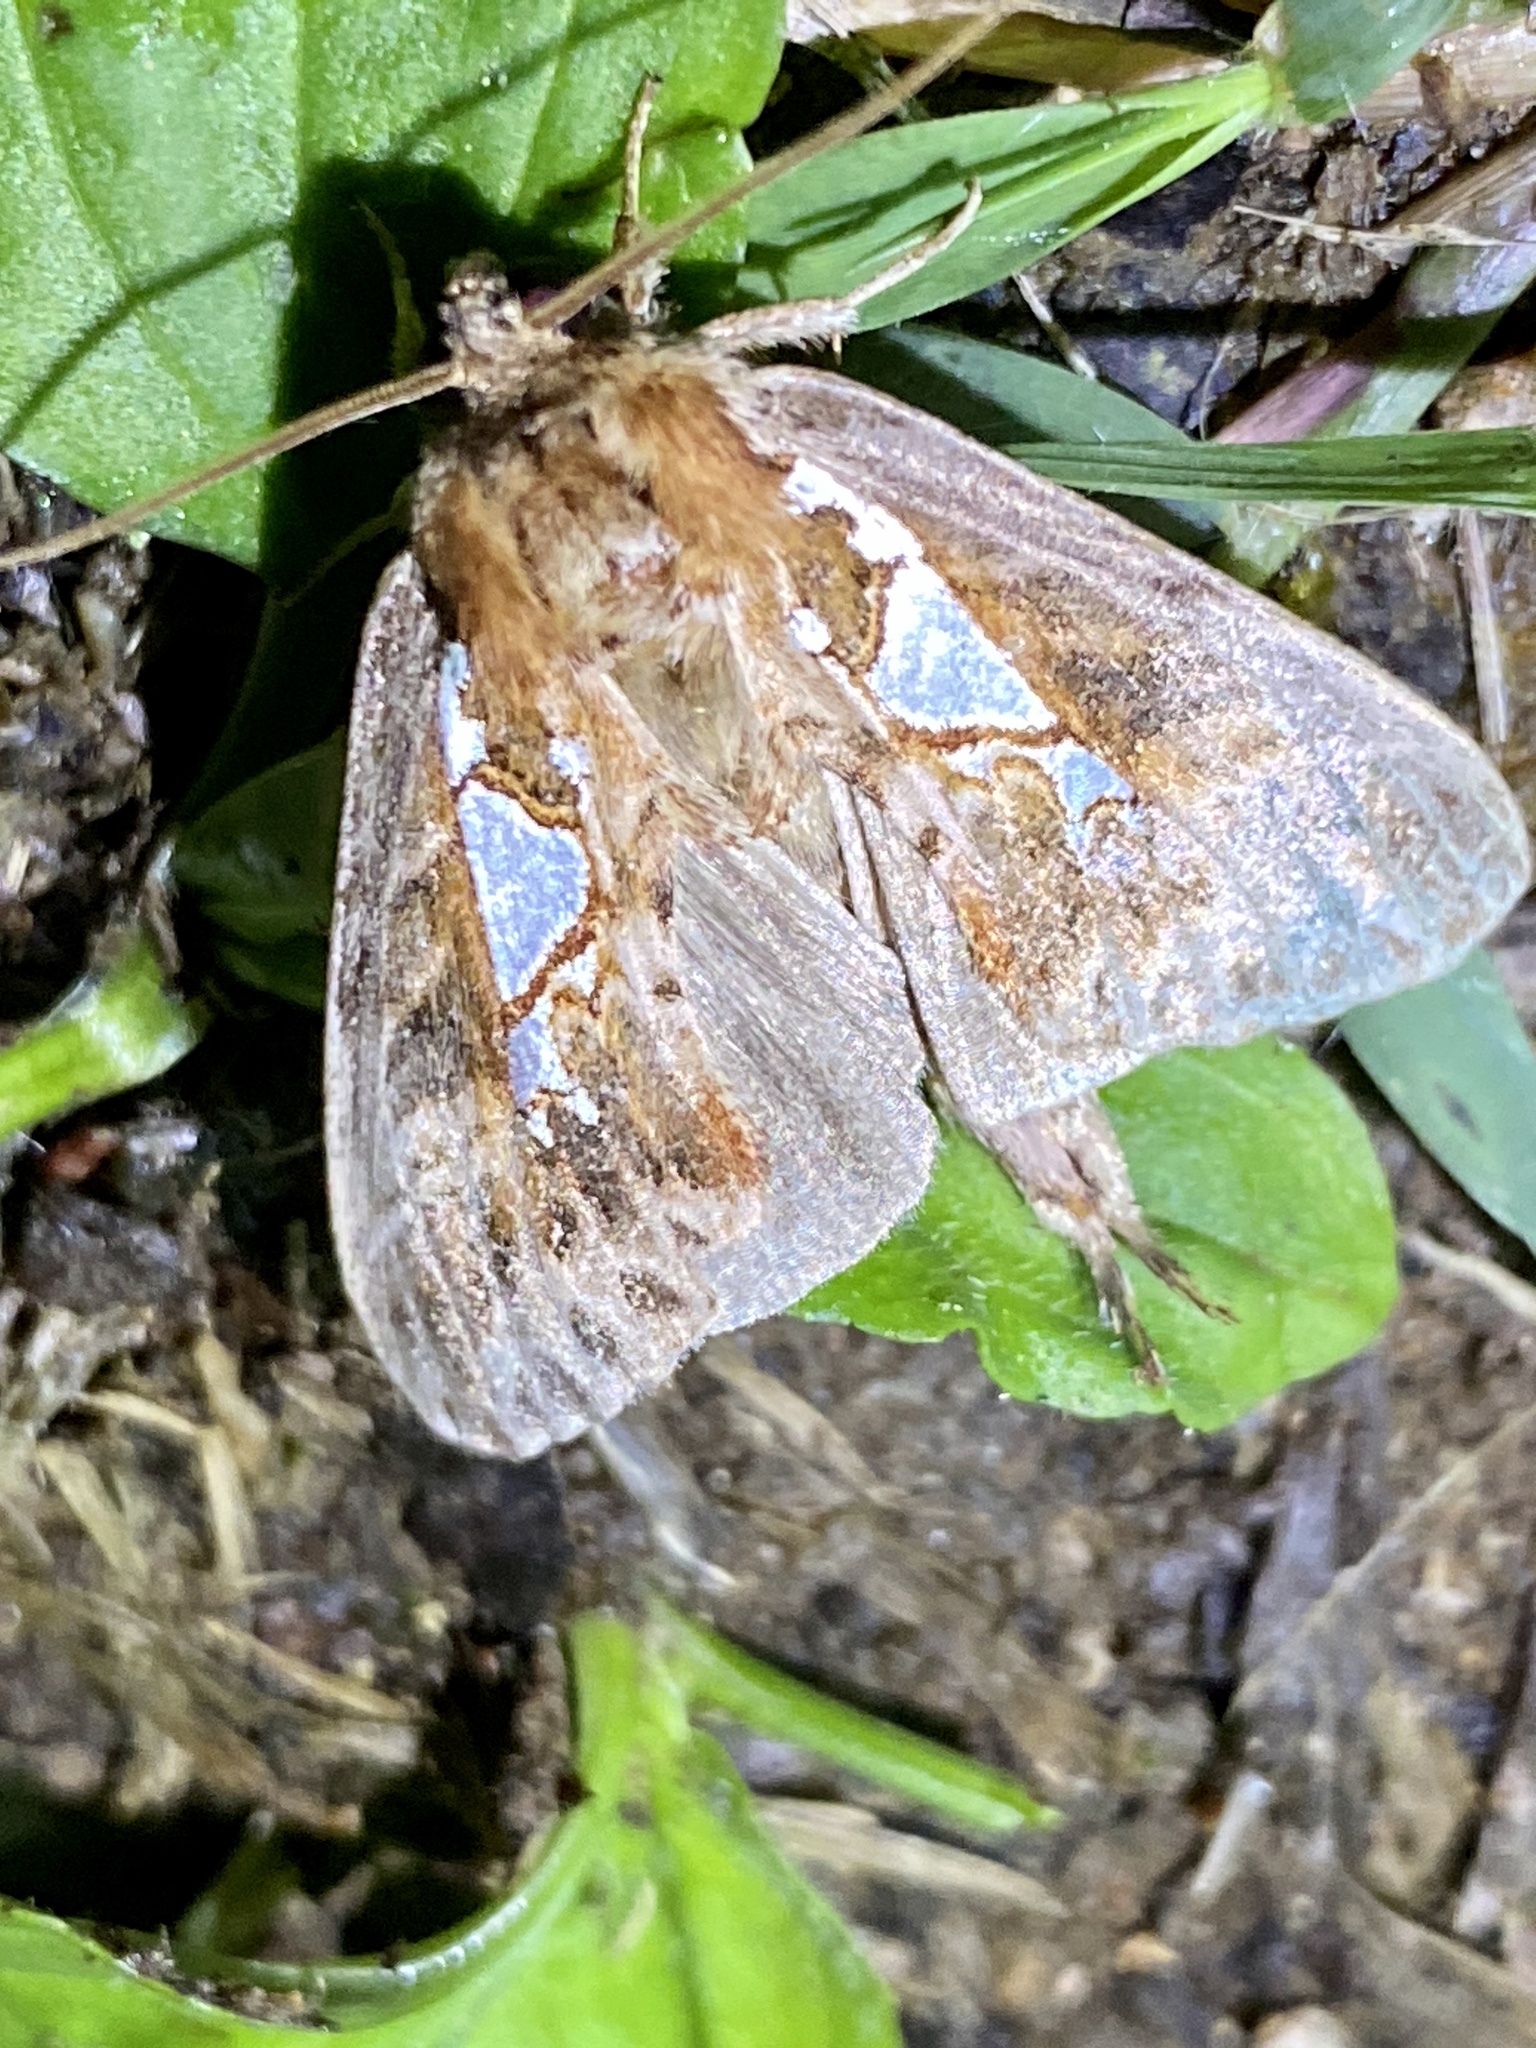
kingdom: Animalia
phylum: Arthropoda
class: Insecta
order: Lepidoptera
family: Notodontidae
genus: Spatalia
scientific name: Spatalia doerriesi
